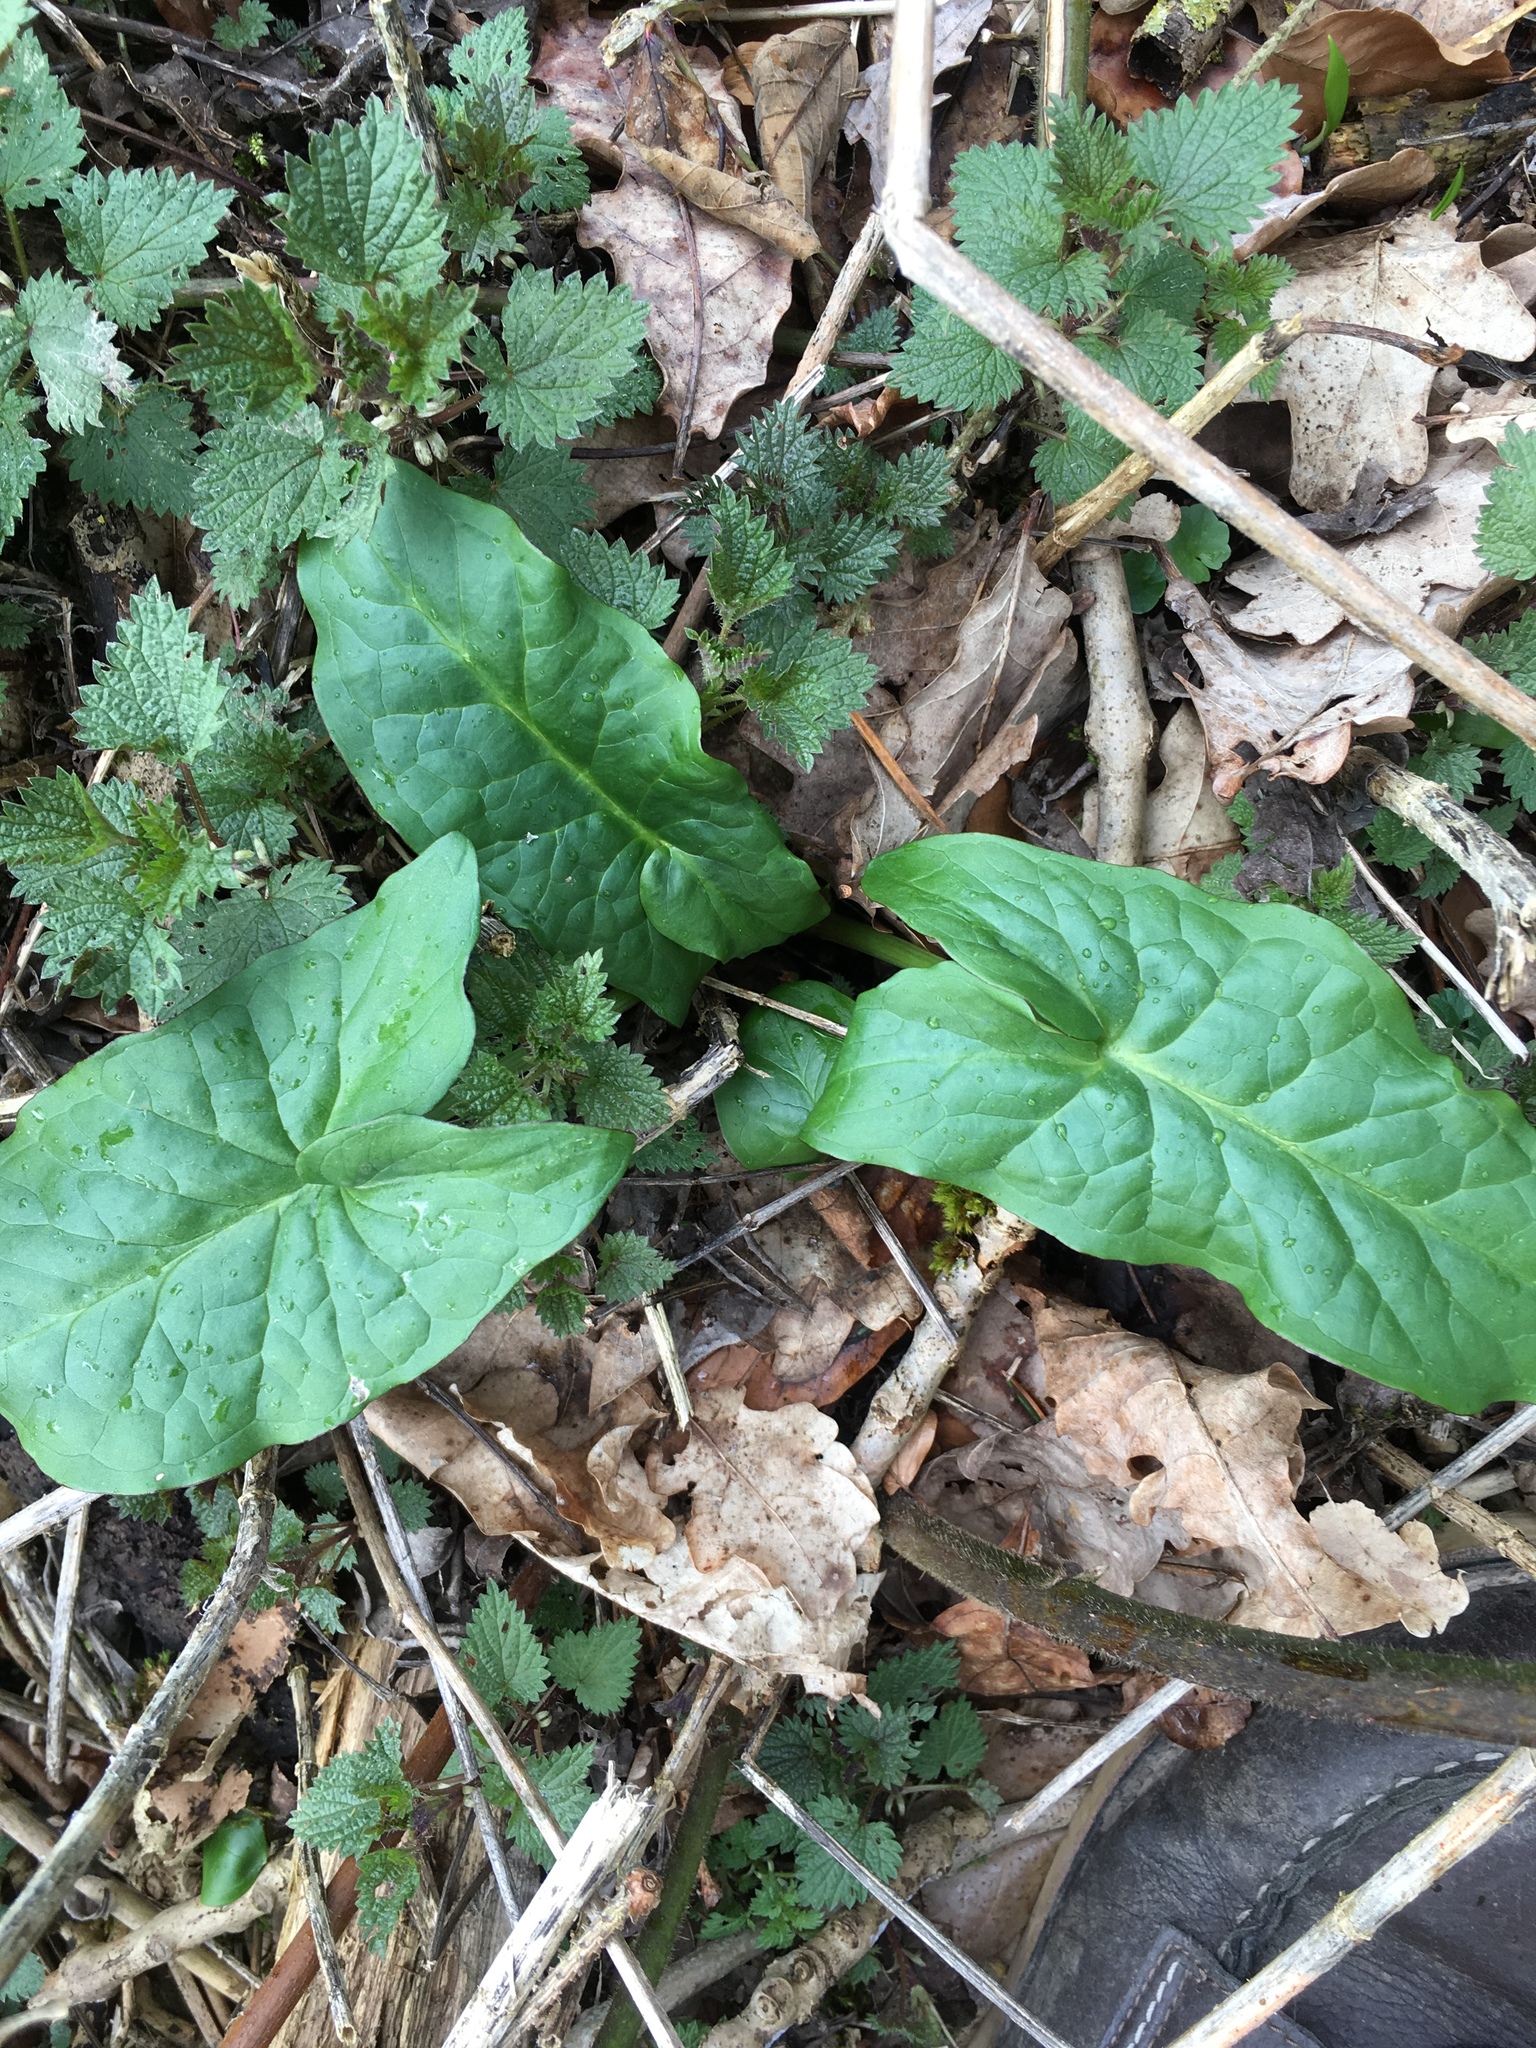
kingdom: Plantae
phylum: Tracheophyta
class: Liliopsida
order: Alismatales
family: Araceae
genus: Arum
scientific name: Arum maculatum
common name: Lords-and-ladies
